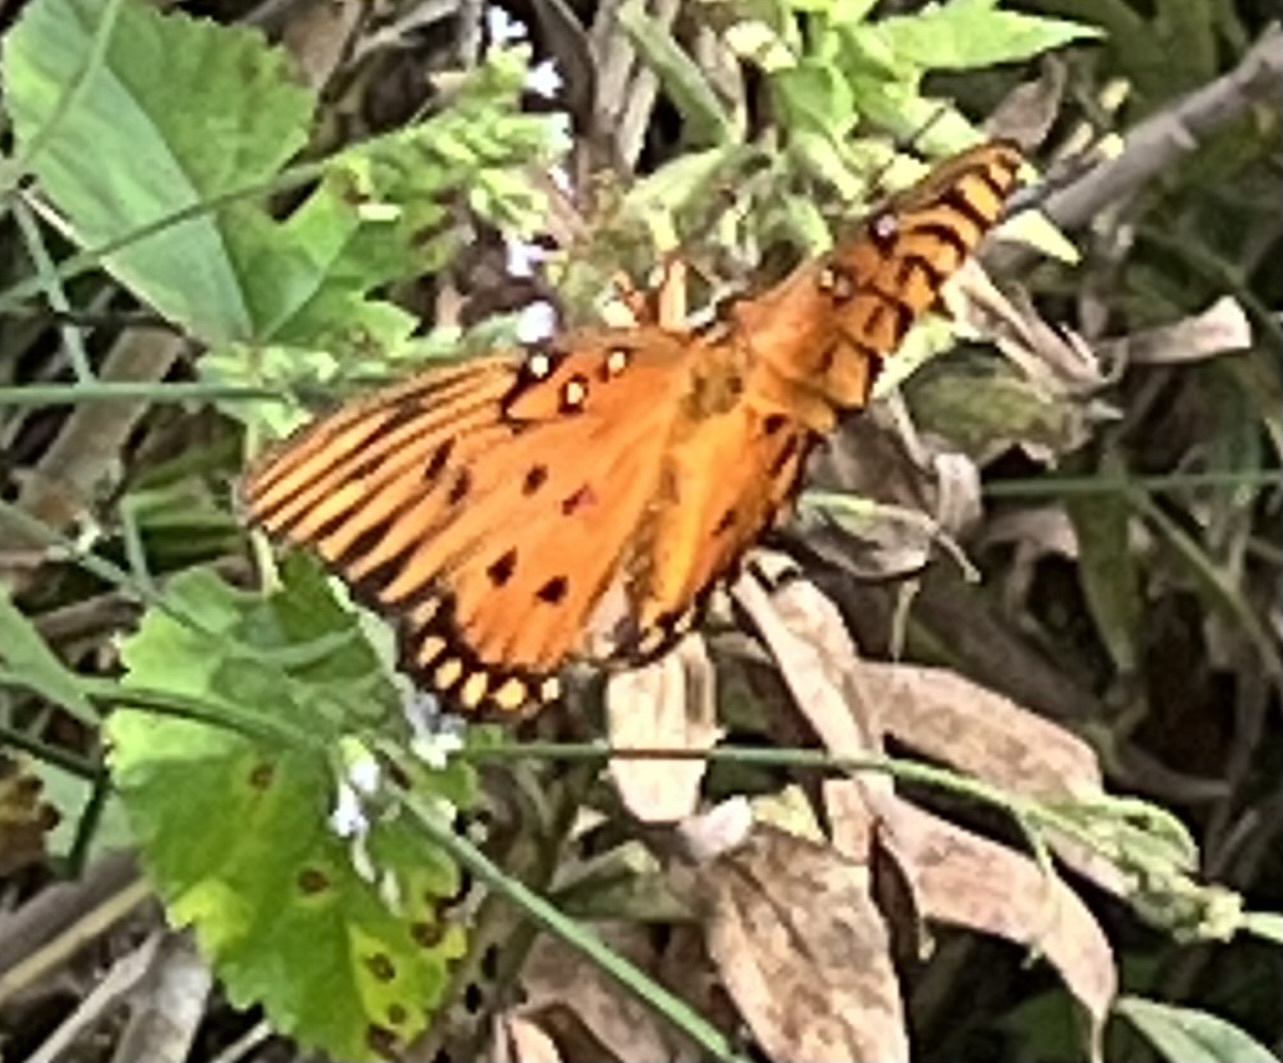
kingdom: Animalia
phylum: Arthropoda
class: Insecta
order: Lepidoptera
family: Nymphalidae
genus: Dione
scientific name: Dione vanillae
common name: Gulf fritillary
